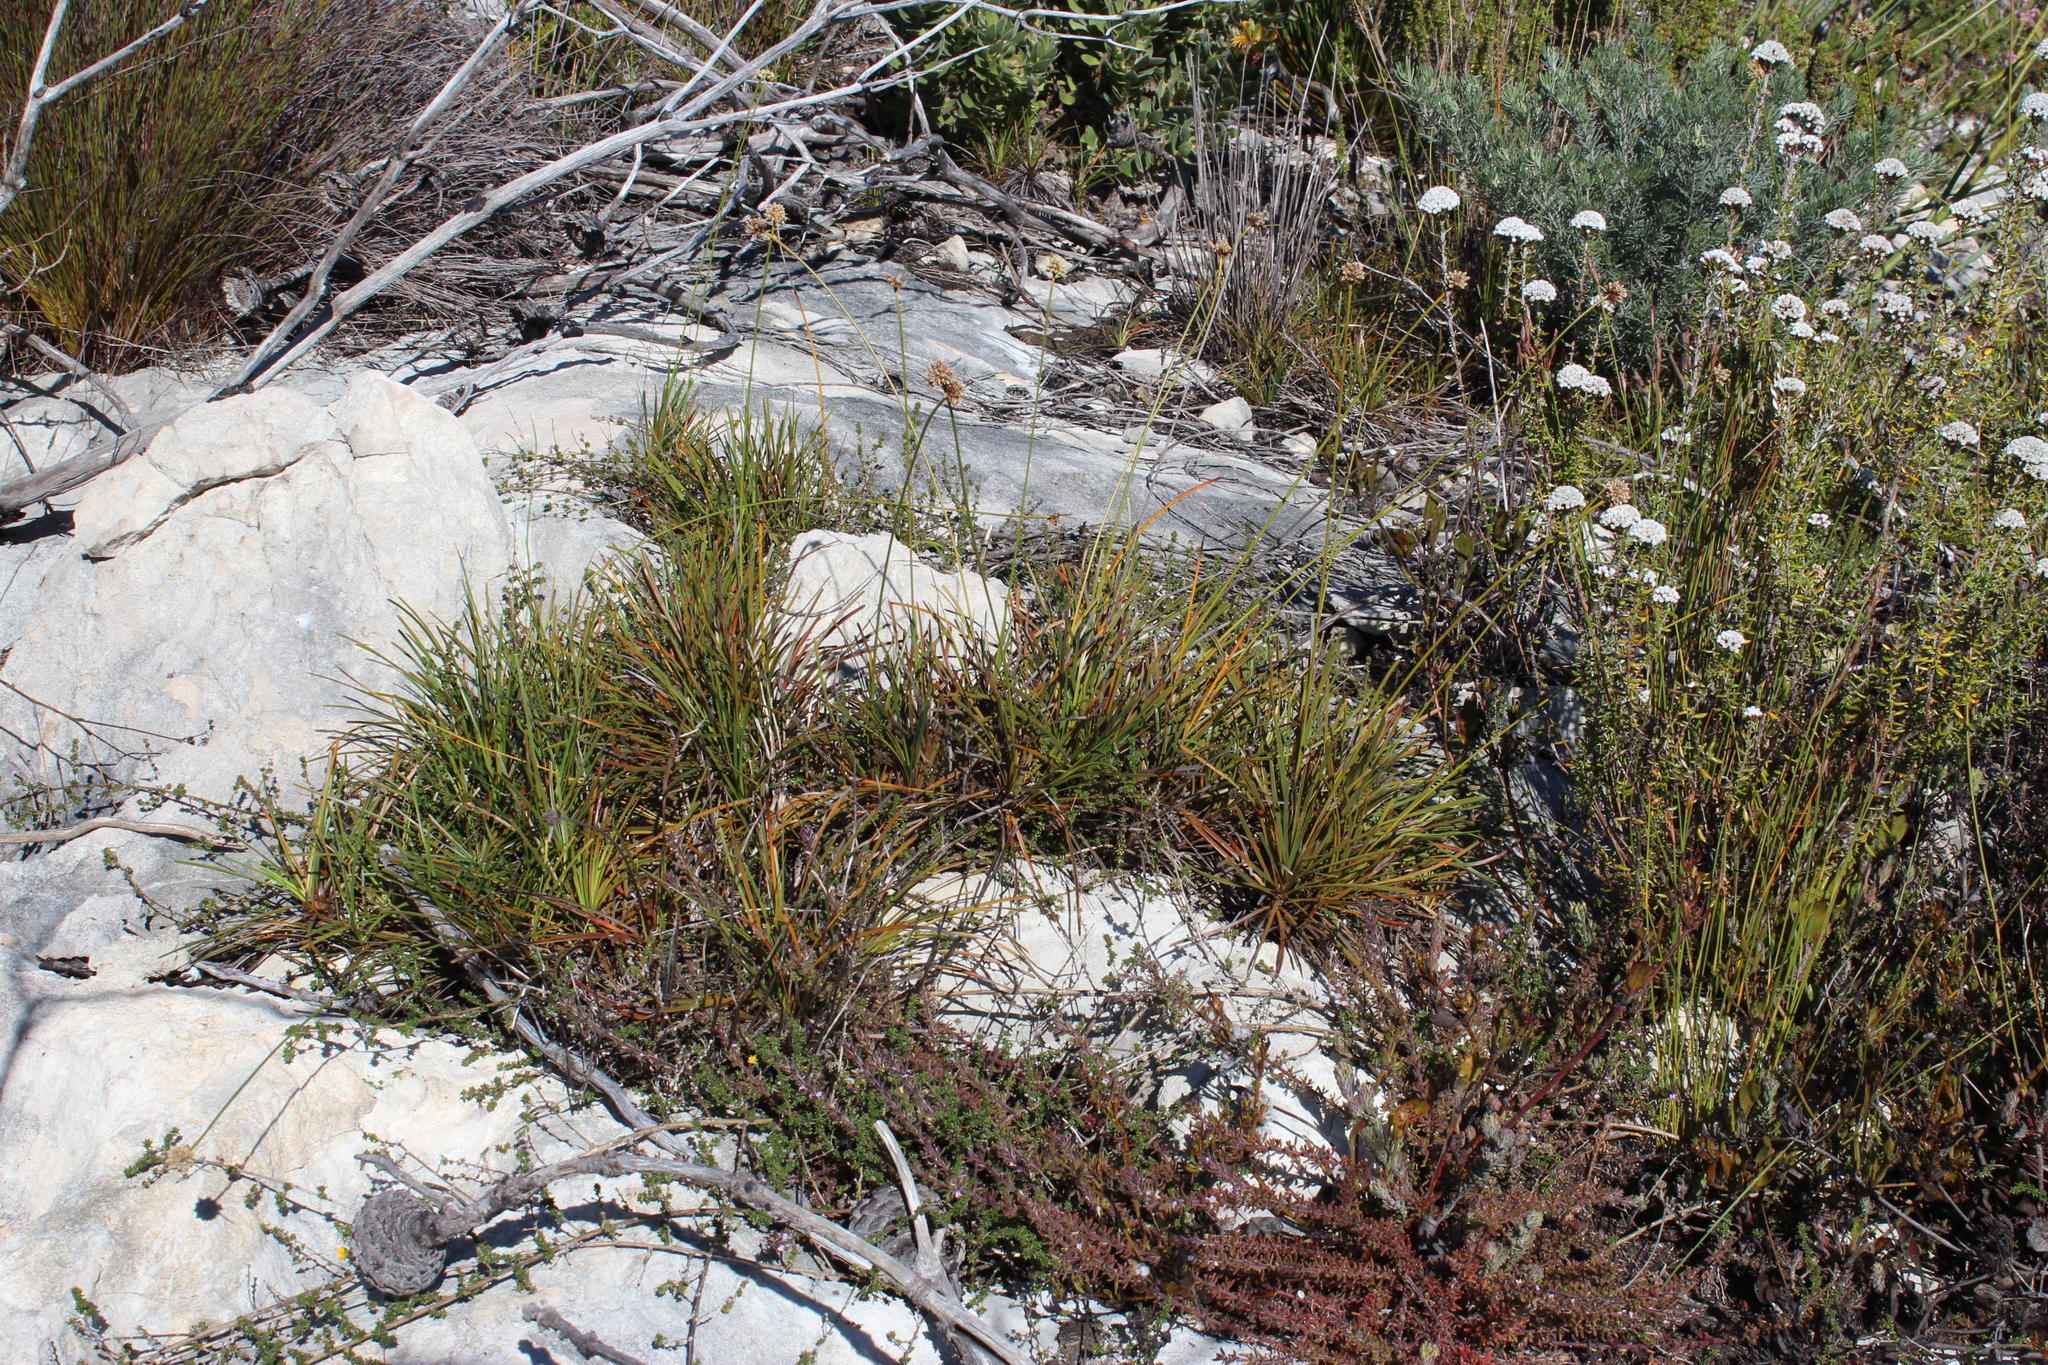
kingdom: Plantae
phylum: Tracheophyta
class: Liliopsida
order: Poales
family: Cyperaceae
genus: Ficinia
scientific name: Ficinia praemorsa
